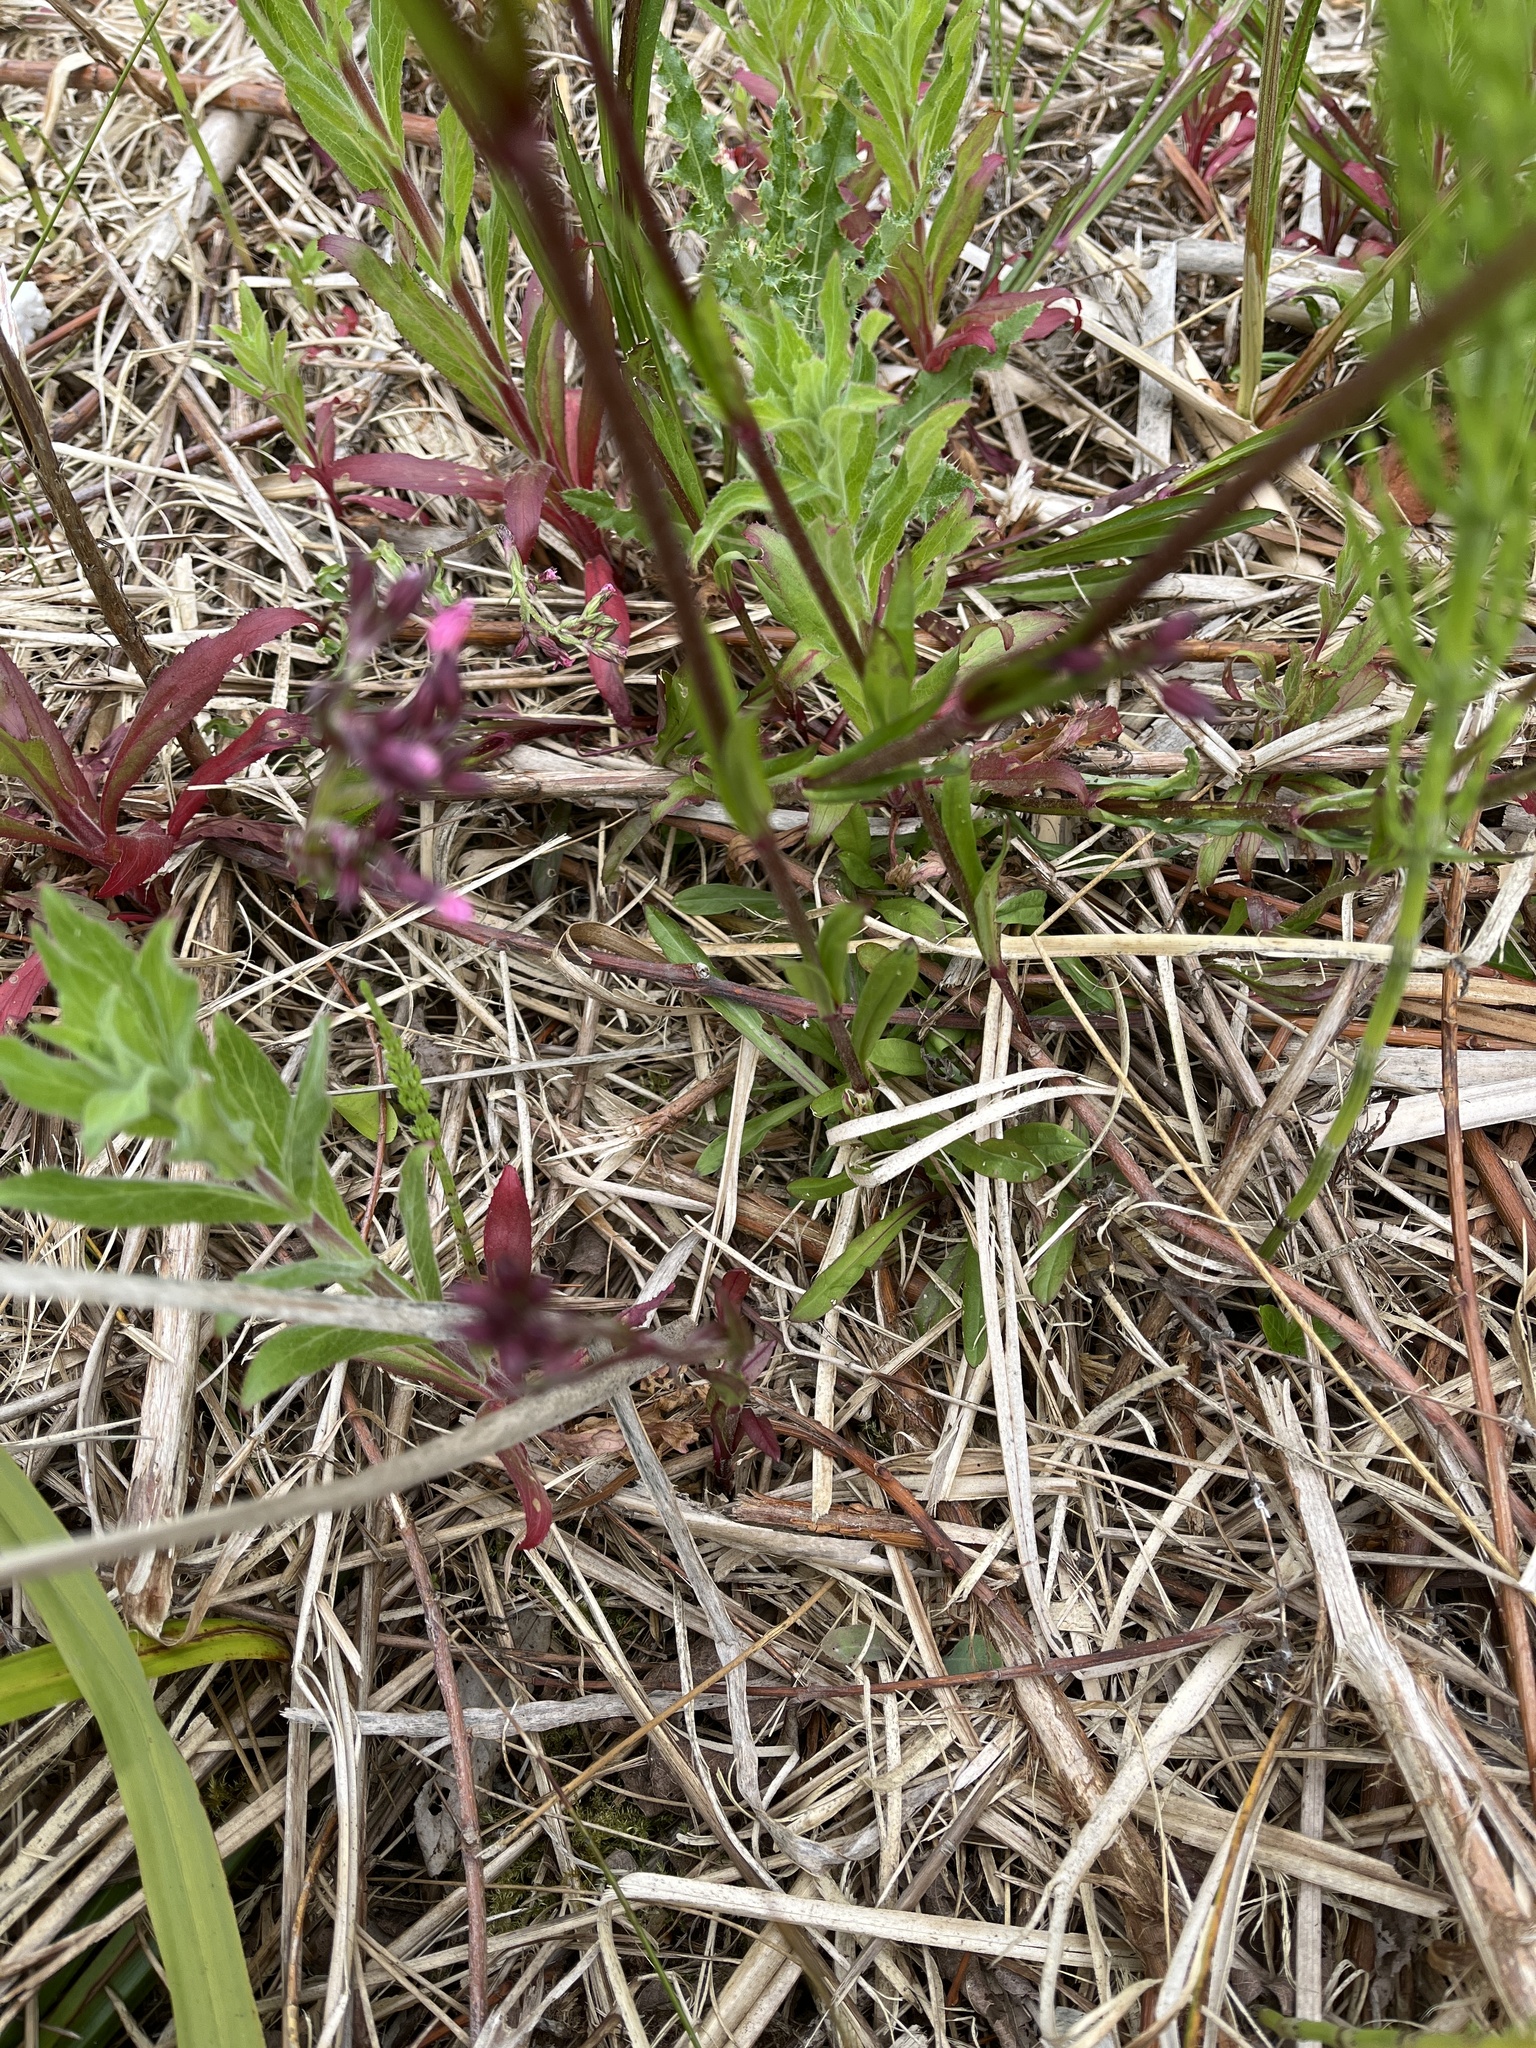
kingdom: Plantae
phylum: Tracheophyta
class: Magnoliopsida
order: Caryophyllales
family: Caryophyllaceae
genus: Silene
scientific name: Silene flos-cuculi
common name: Ragged-robin
